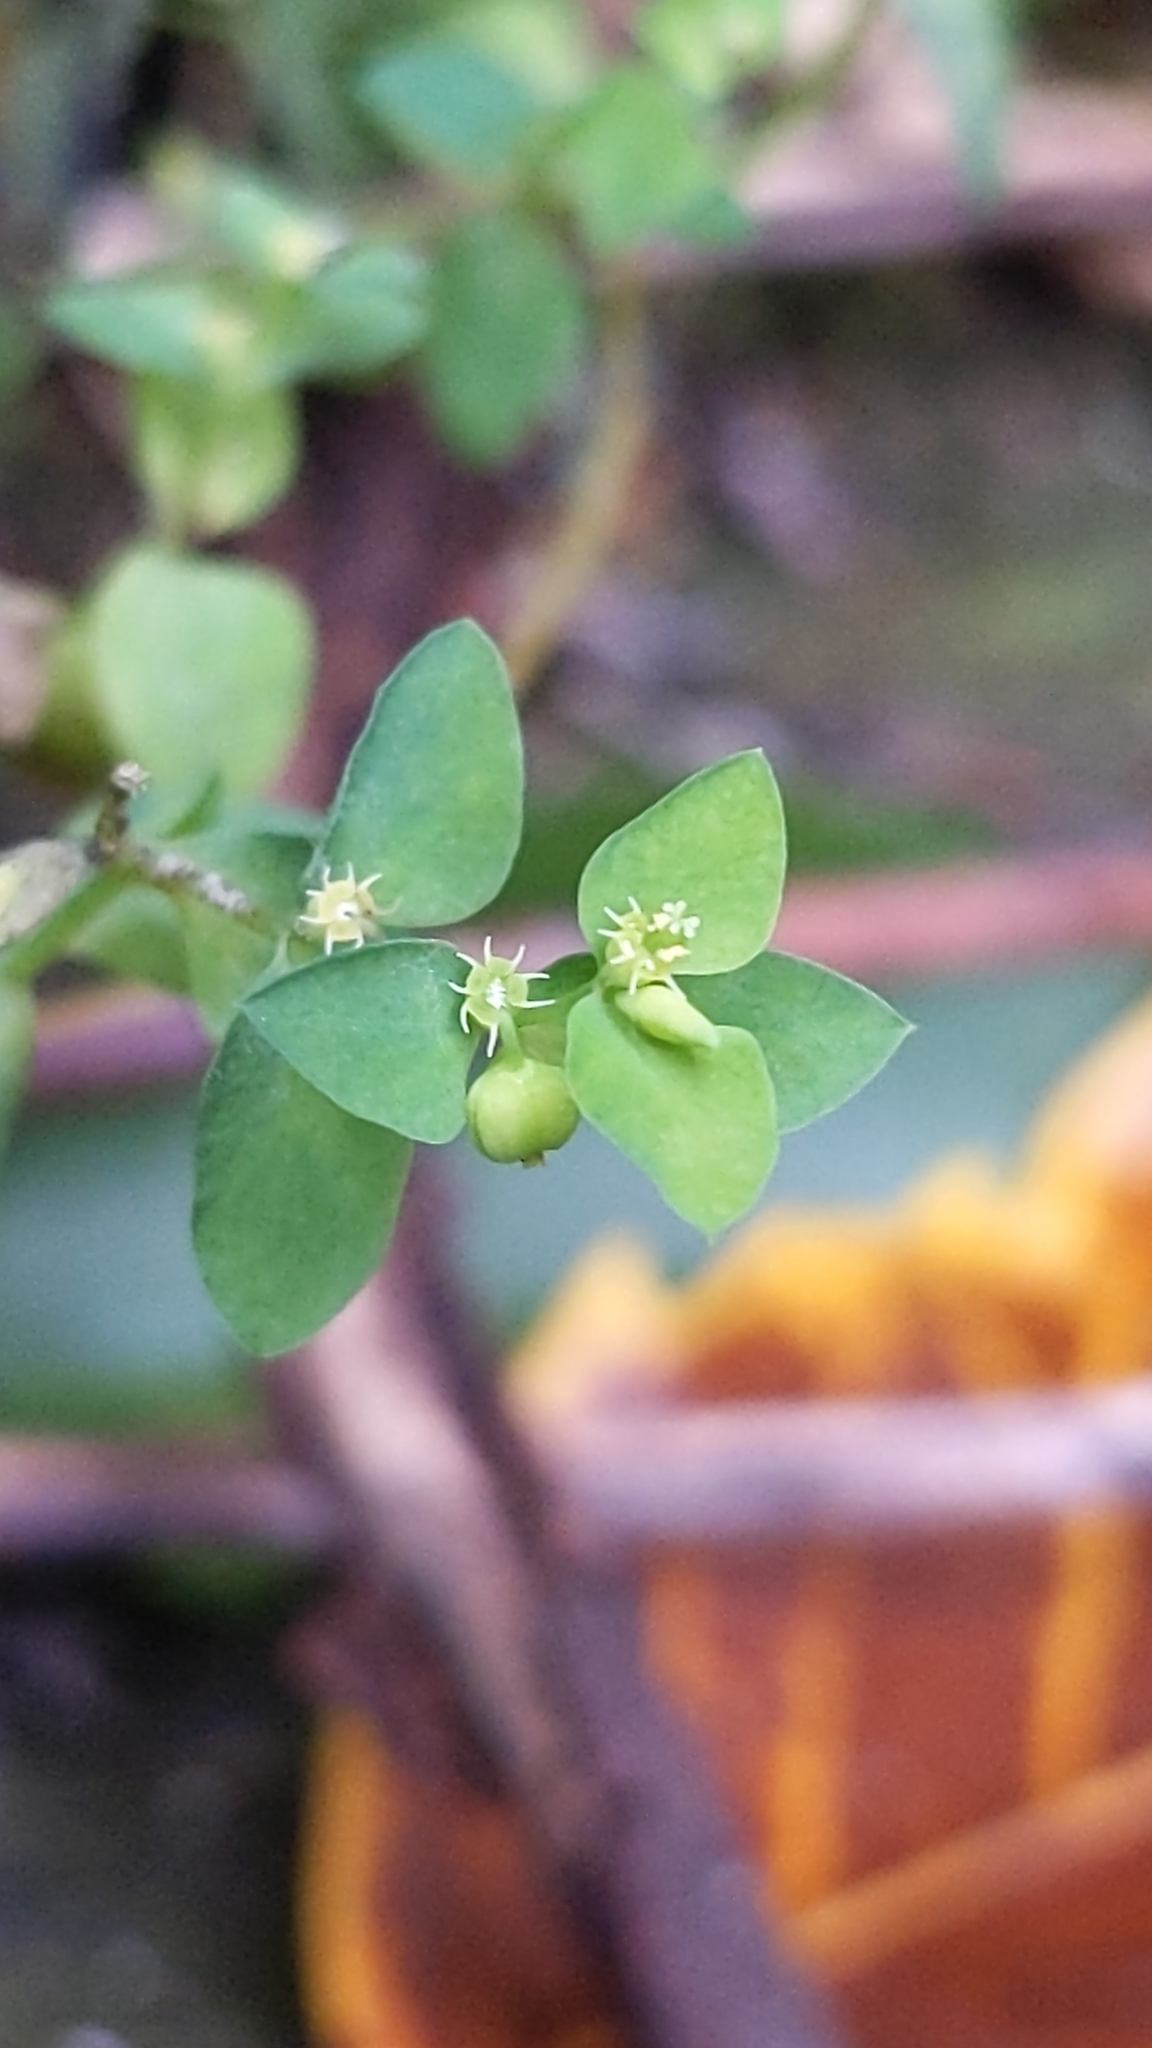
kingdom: Plantae
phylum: Tracheophyta
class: Magnoliopsida
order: Malpighiales
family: Euphorbiaceae
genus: Euphorbia
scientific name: Euphorbia peplus
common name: Petty spurge
